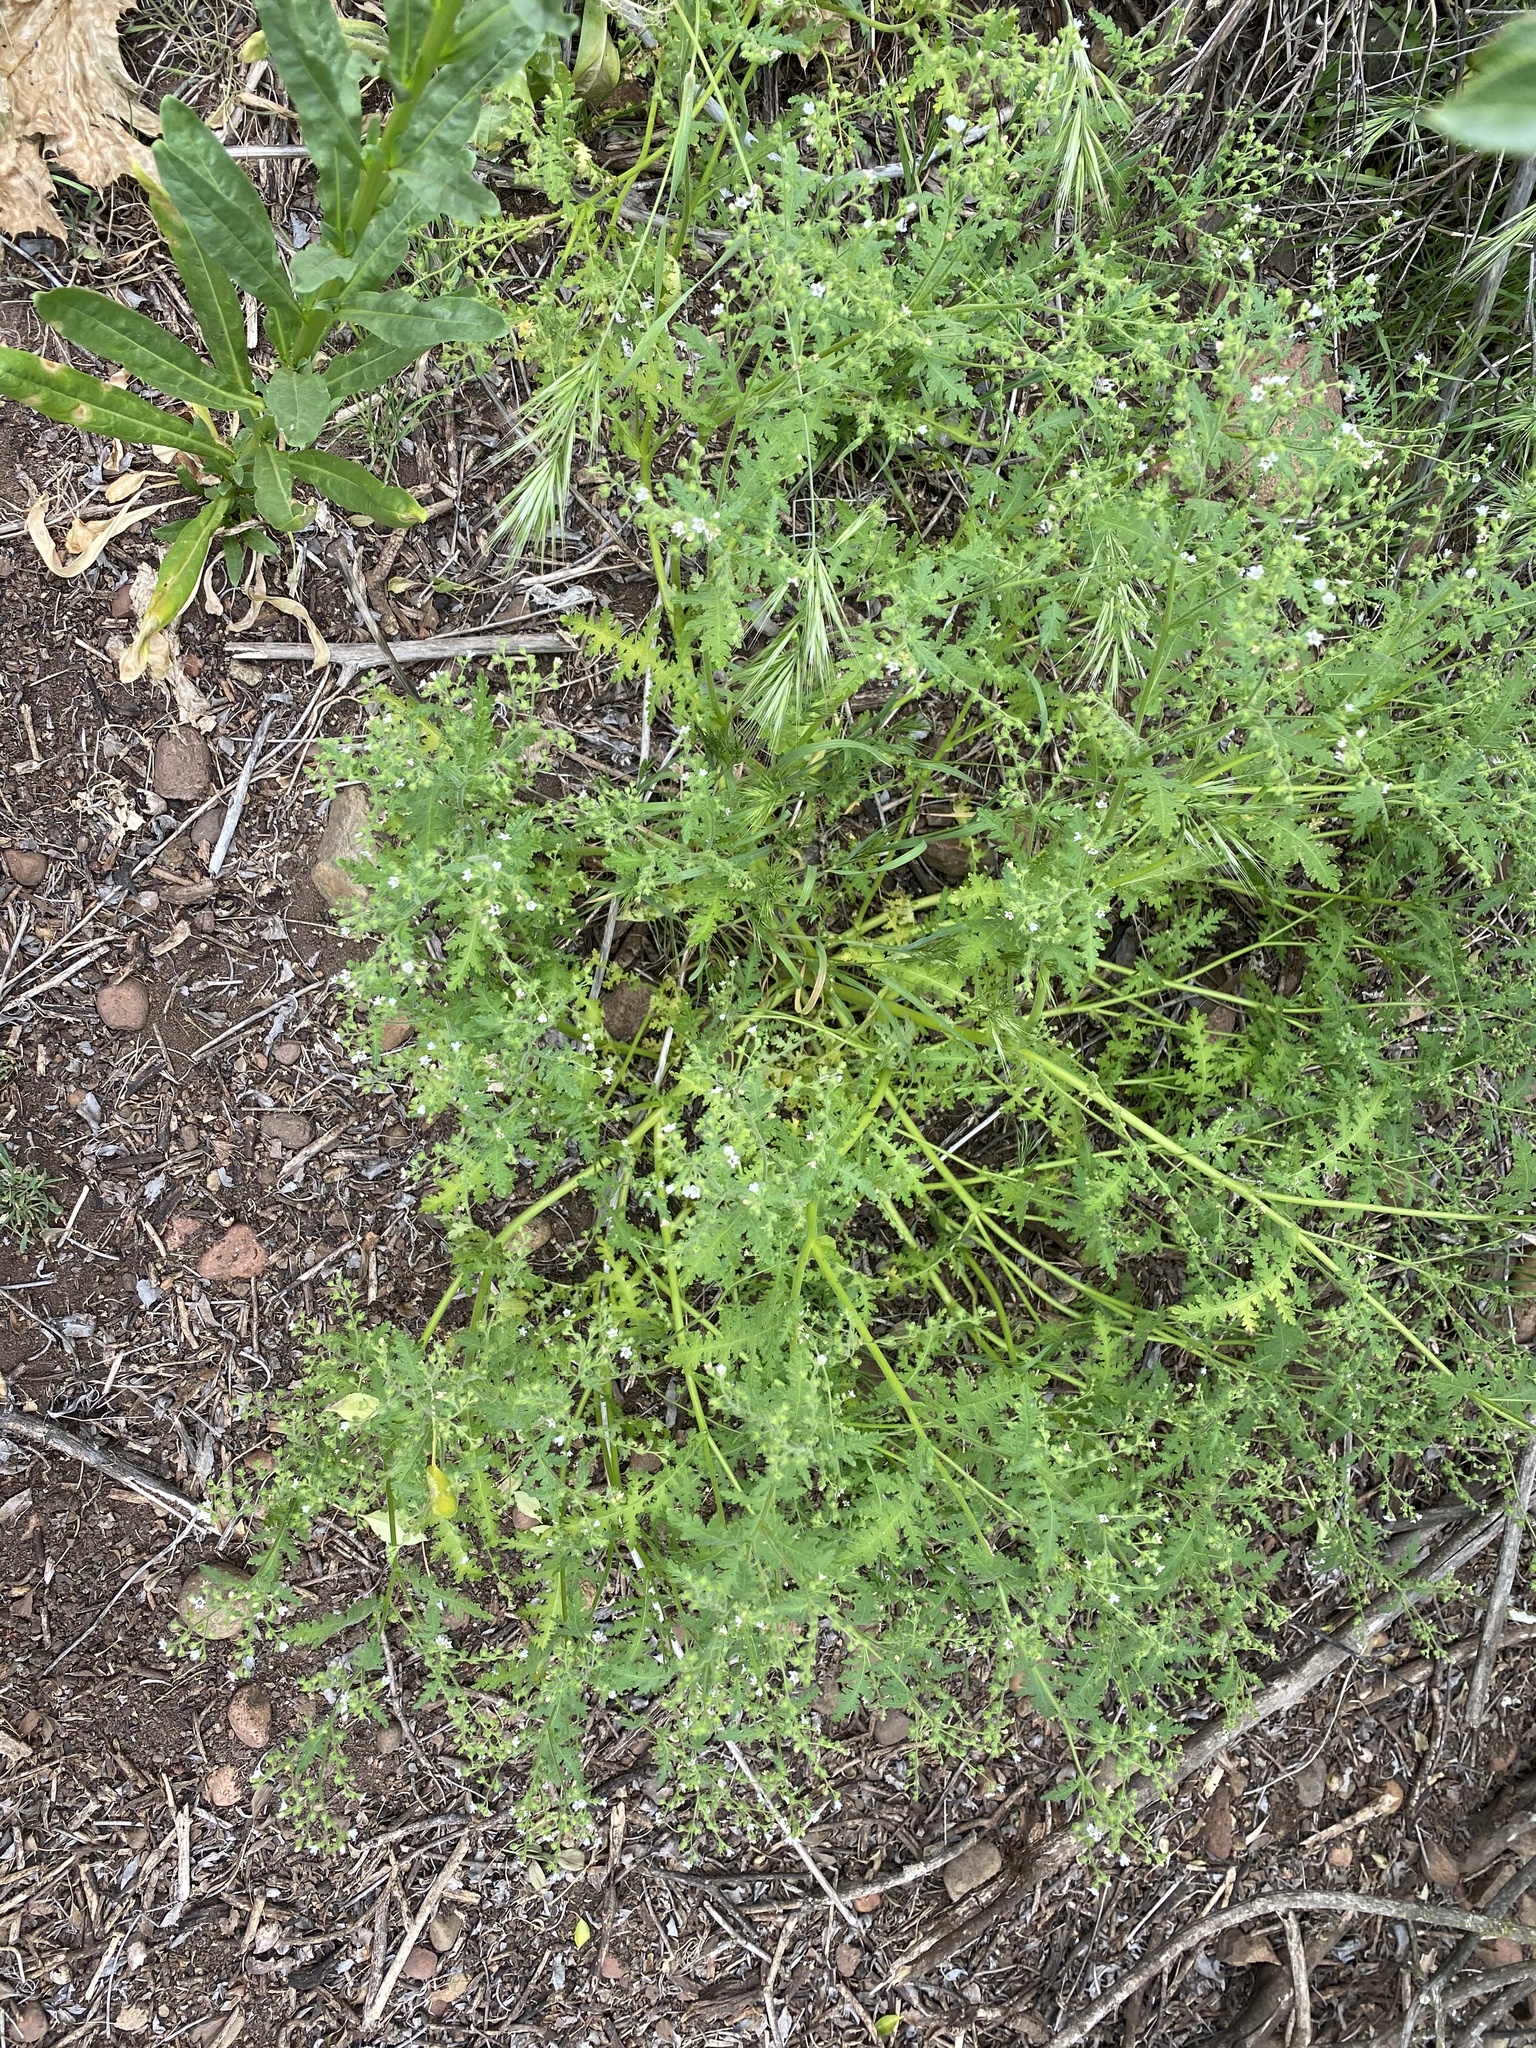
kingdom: Plantae
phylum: Tracheophyta
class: Magnoliopsida
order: Boraginales
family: Hydrophyllaceae
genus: Eucrypta
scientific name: Eucrypta chrysanthemifolia
